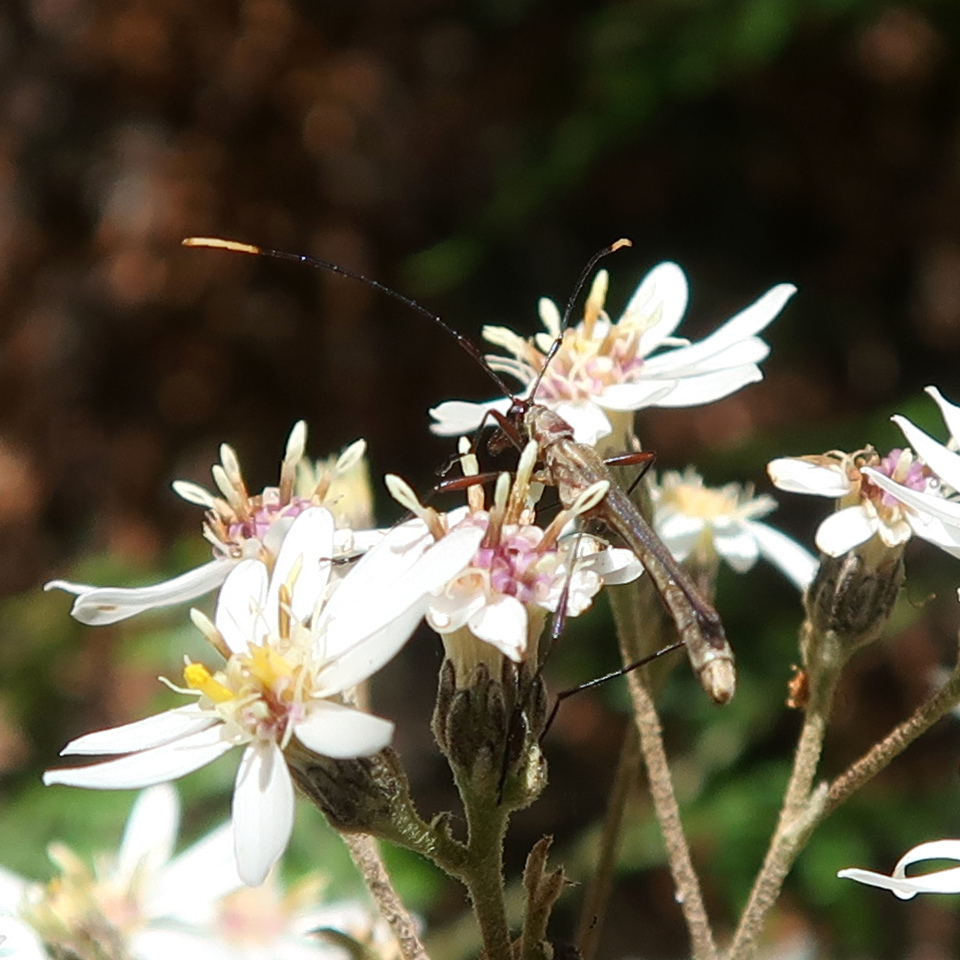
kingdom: Animalia
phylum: Arthropoda
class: Insecta
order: Coleoptera
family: Cerambycidae
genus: Enchoptera
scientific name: Enchoptera apicalis
